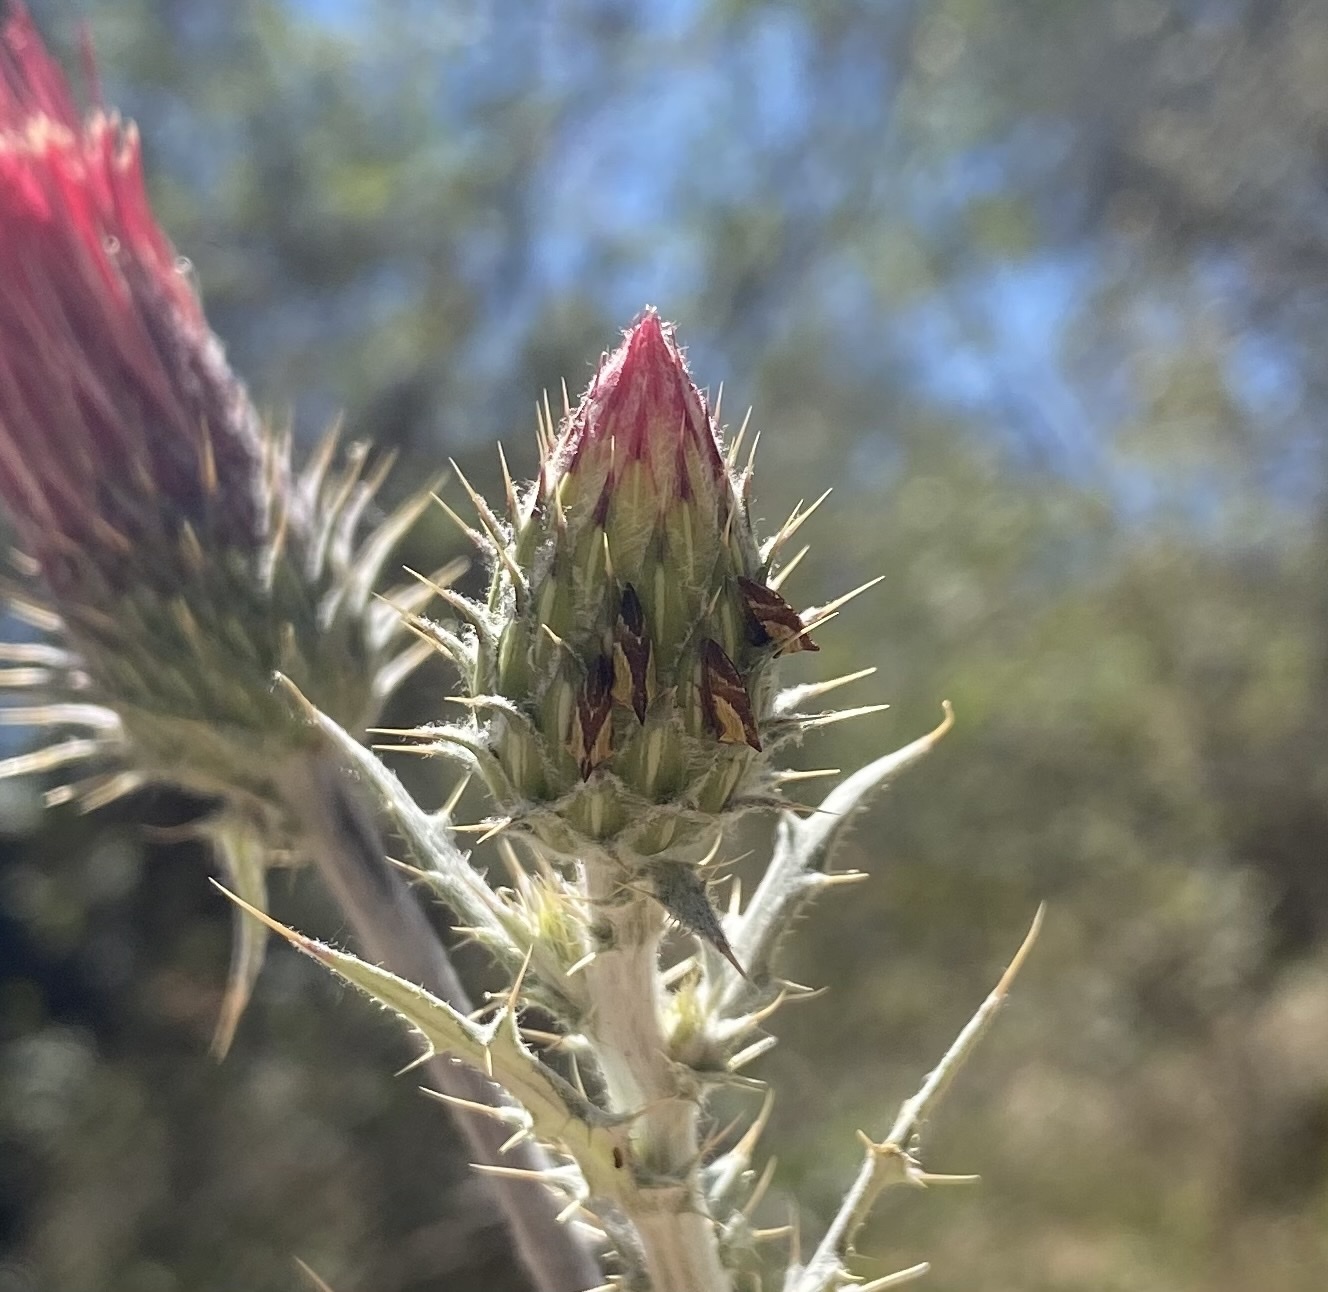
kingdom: Animalia
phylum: Arthropoda
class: Insecta
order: Hemiptera
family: Membracidae
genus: Publilia
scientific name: Publilia porrecta
